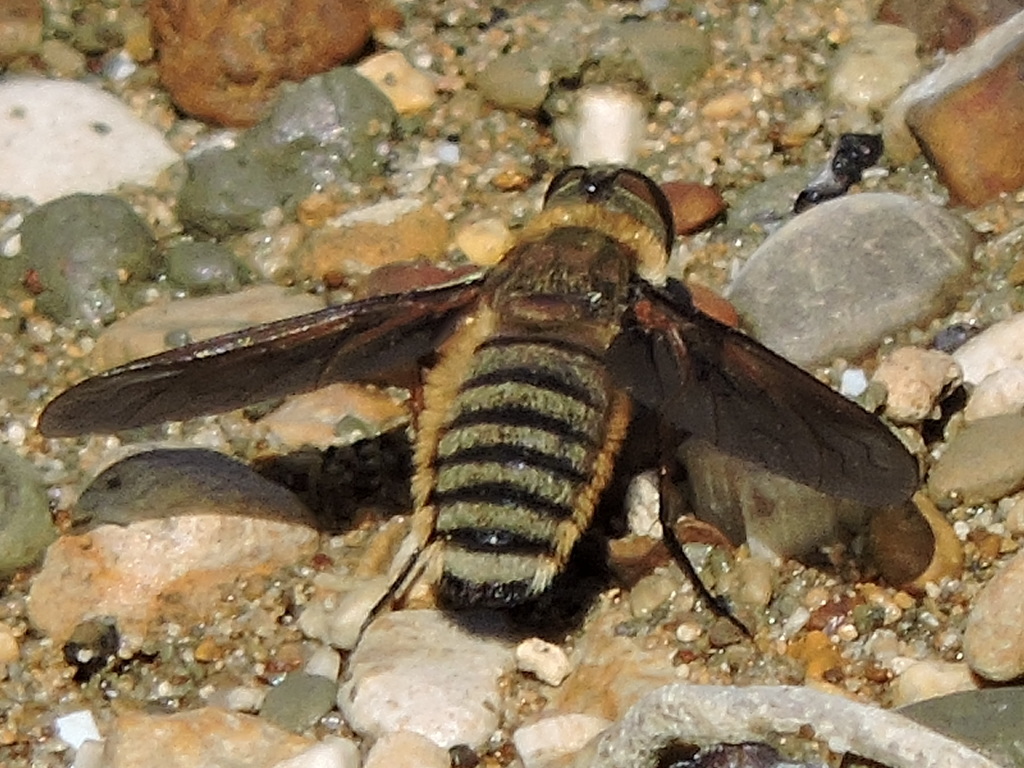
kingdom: Animalia
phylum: Arthropoda
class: Insecta
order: Diptera
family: Bombyliidae
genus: Poecilanthrax
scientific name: Poecilanthrax lucifer
